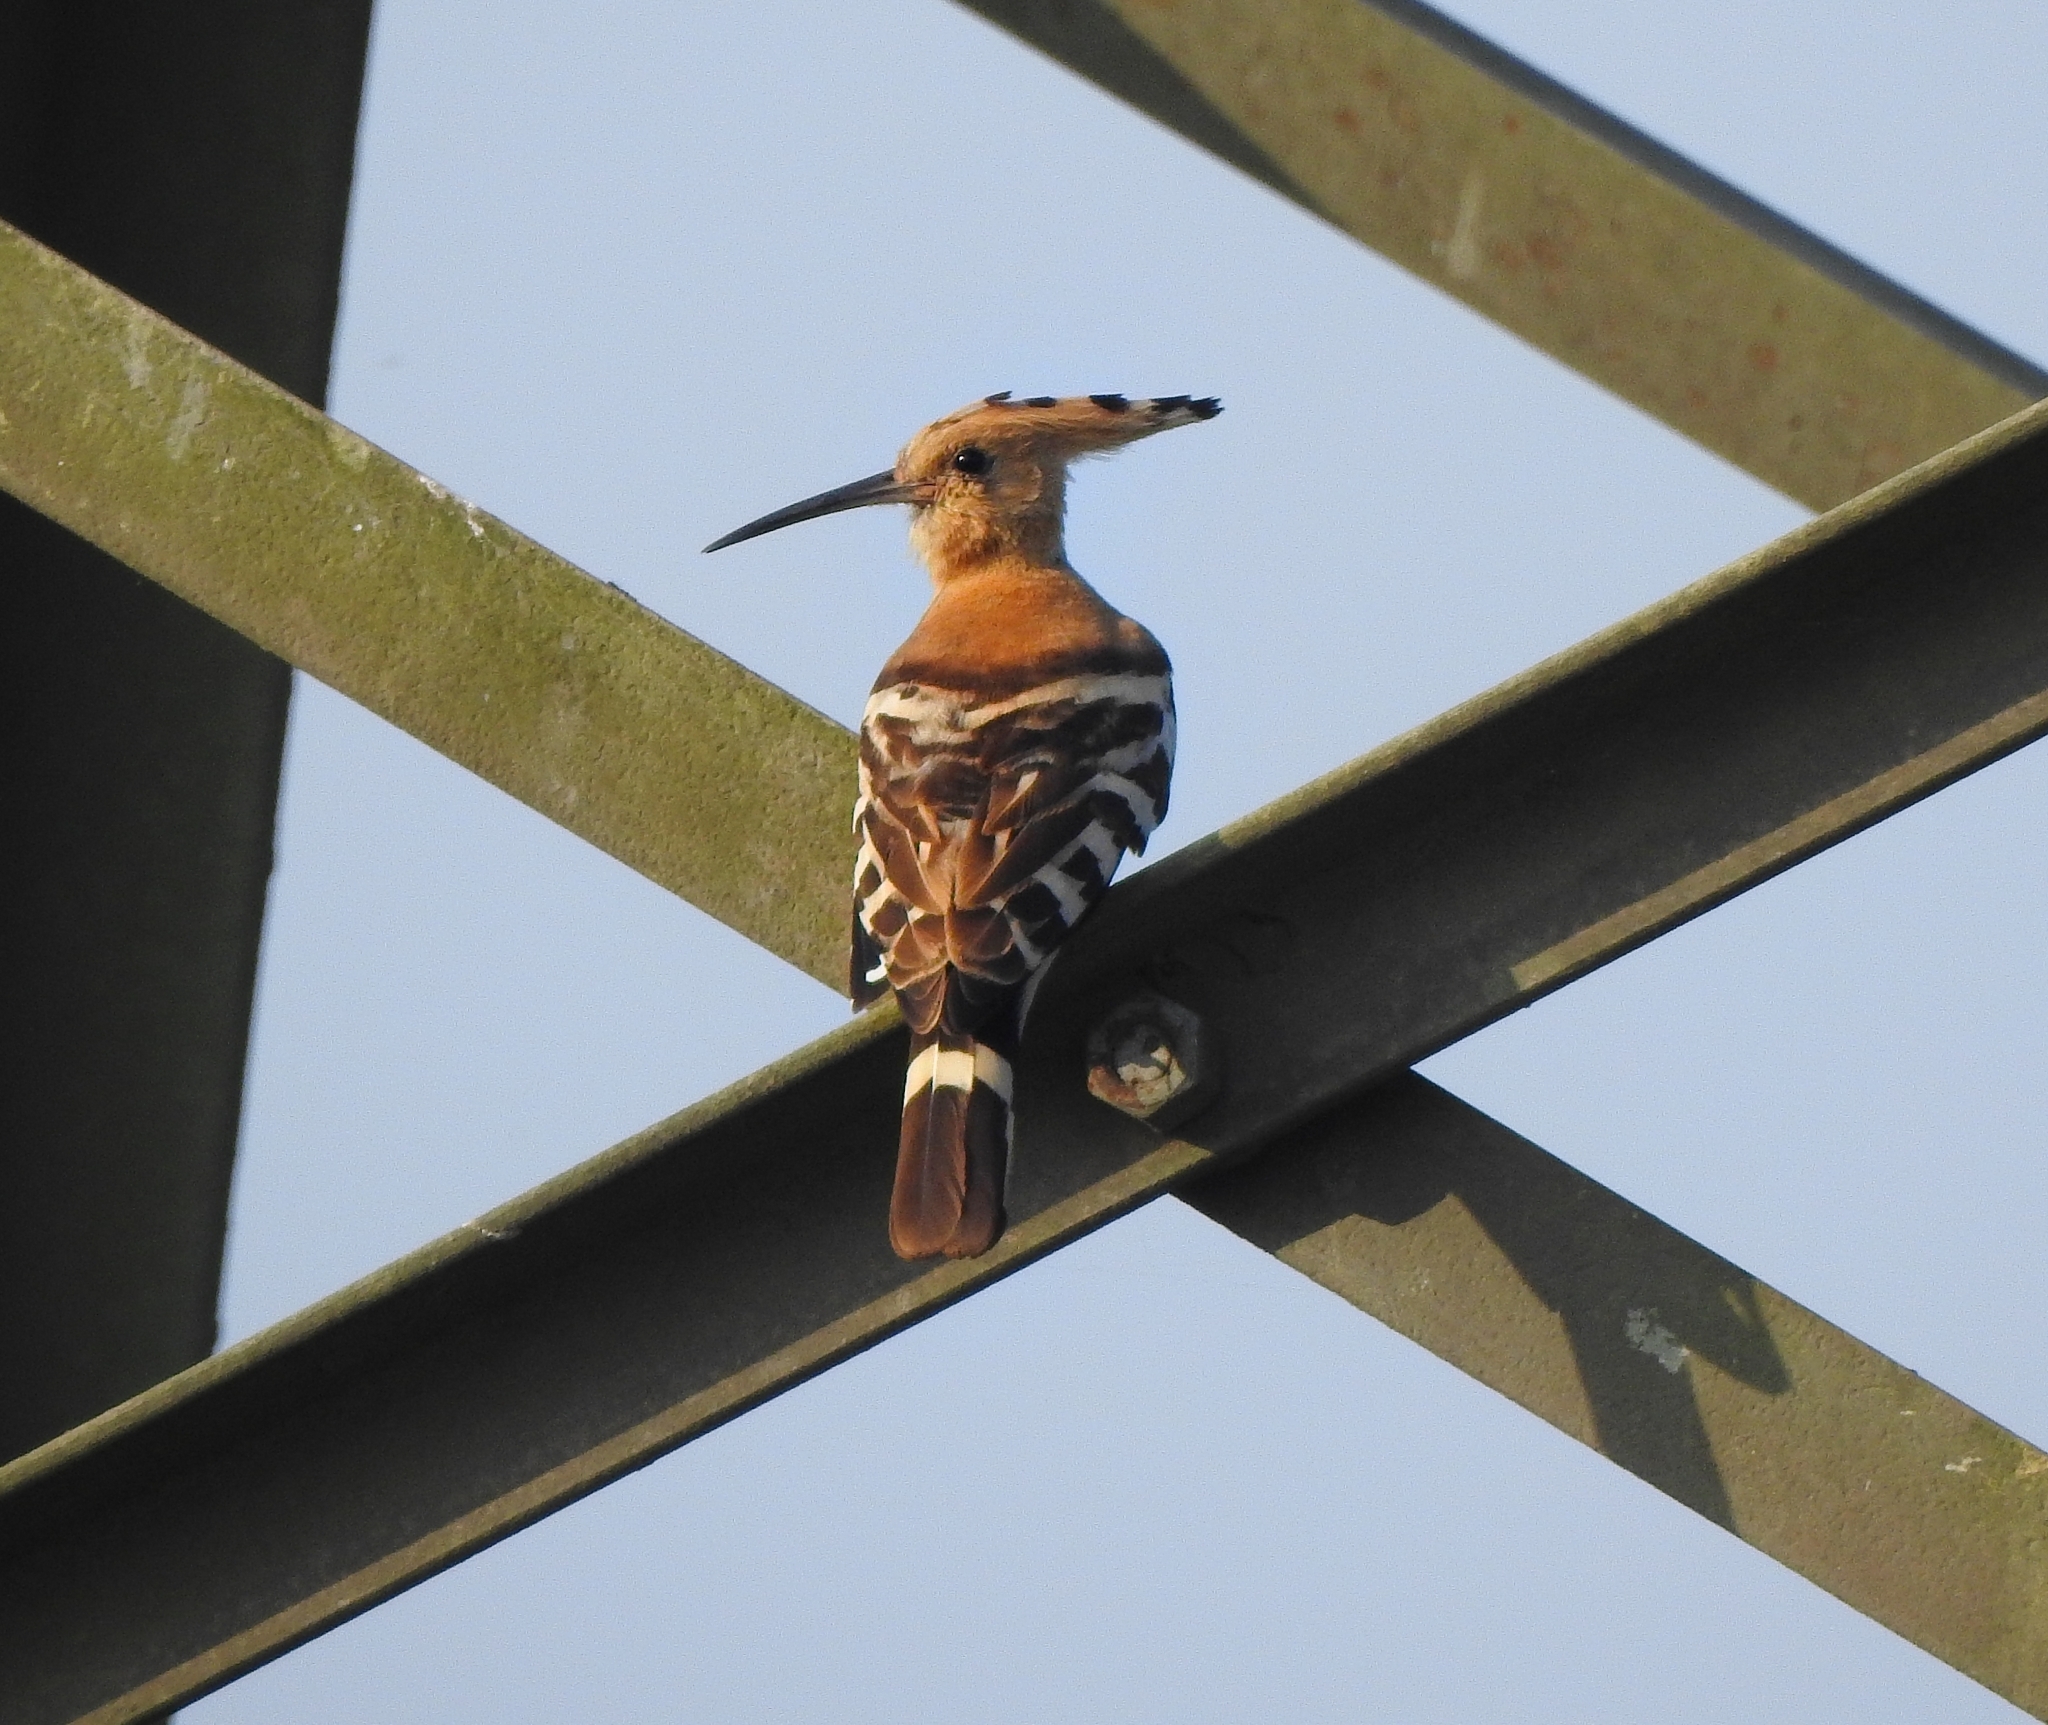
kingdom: Animalia
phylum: Chordata
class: Aves
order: Bucerotiformes
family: Upupidae
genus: Upupa
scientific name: Upupa epops
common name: Eurasian hoopoe
